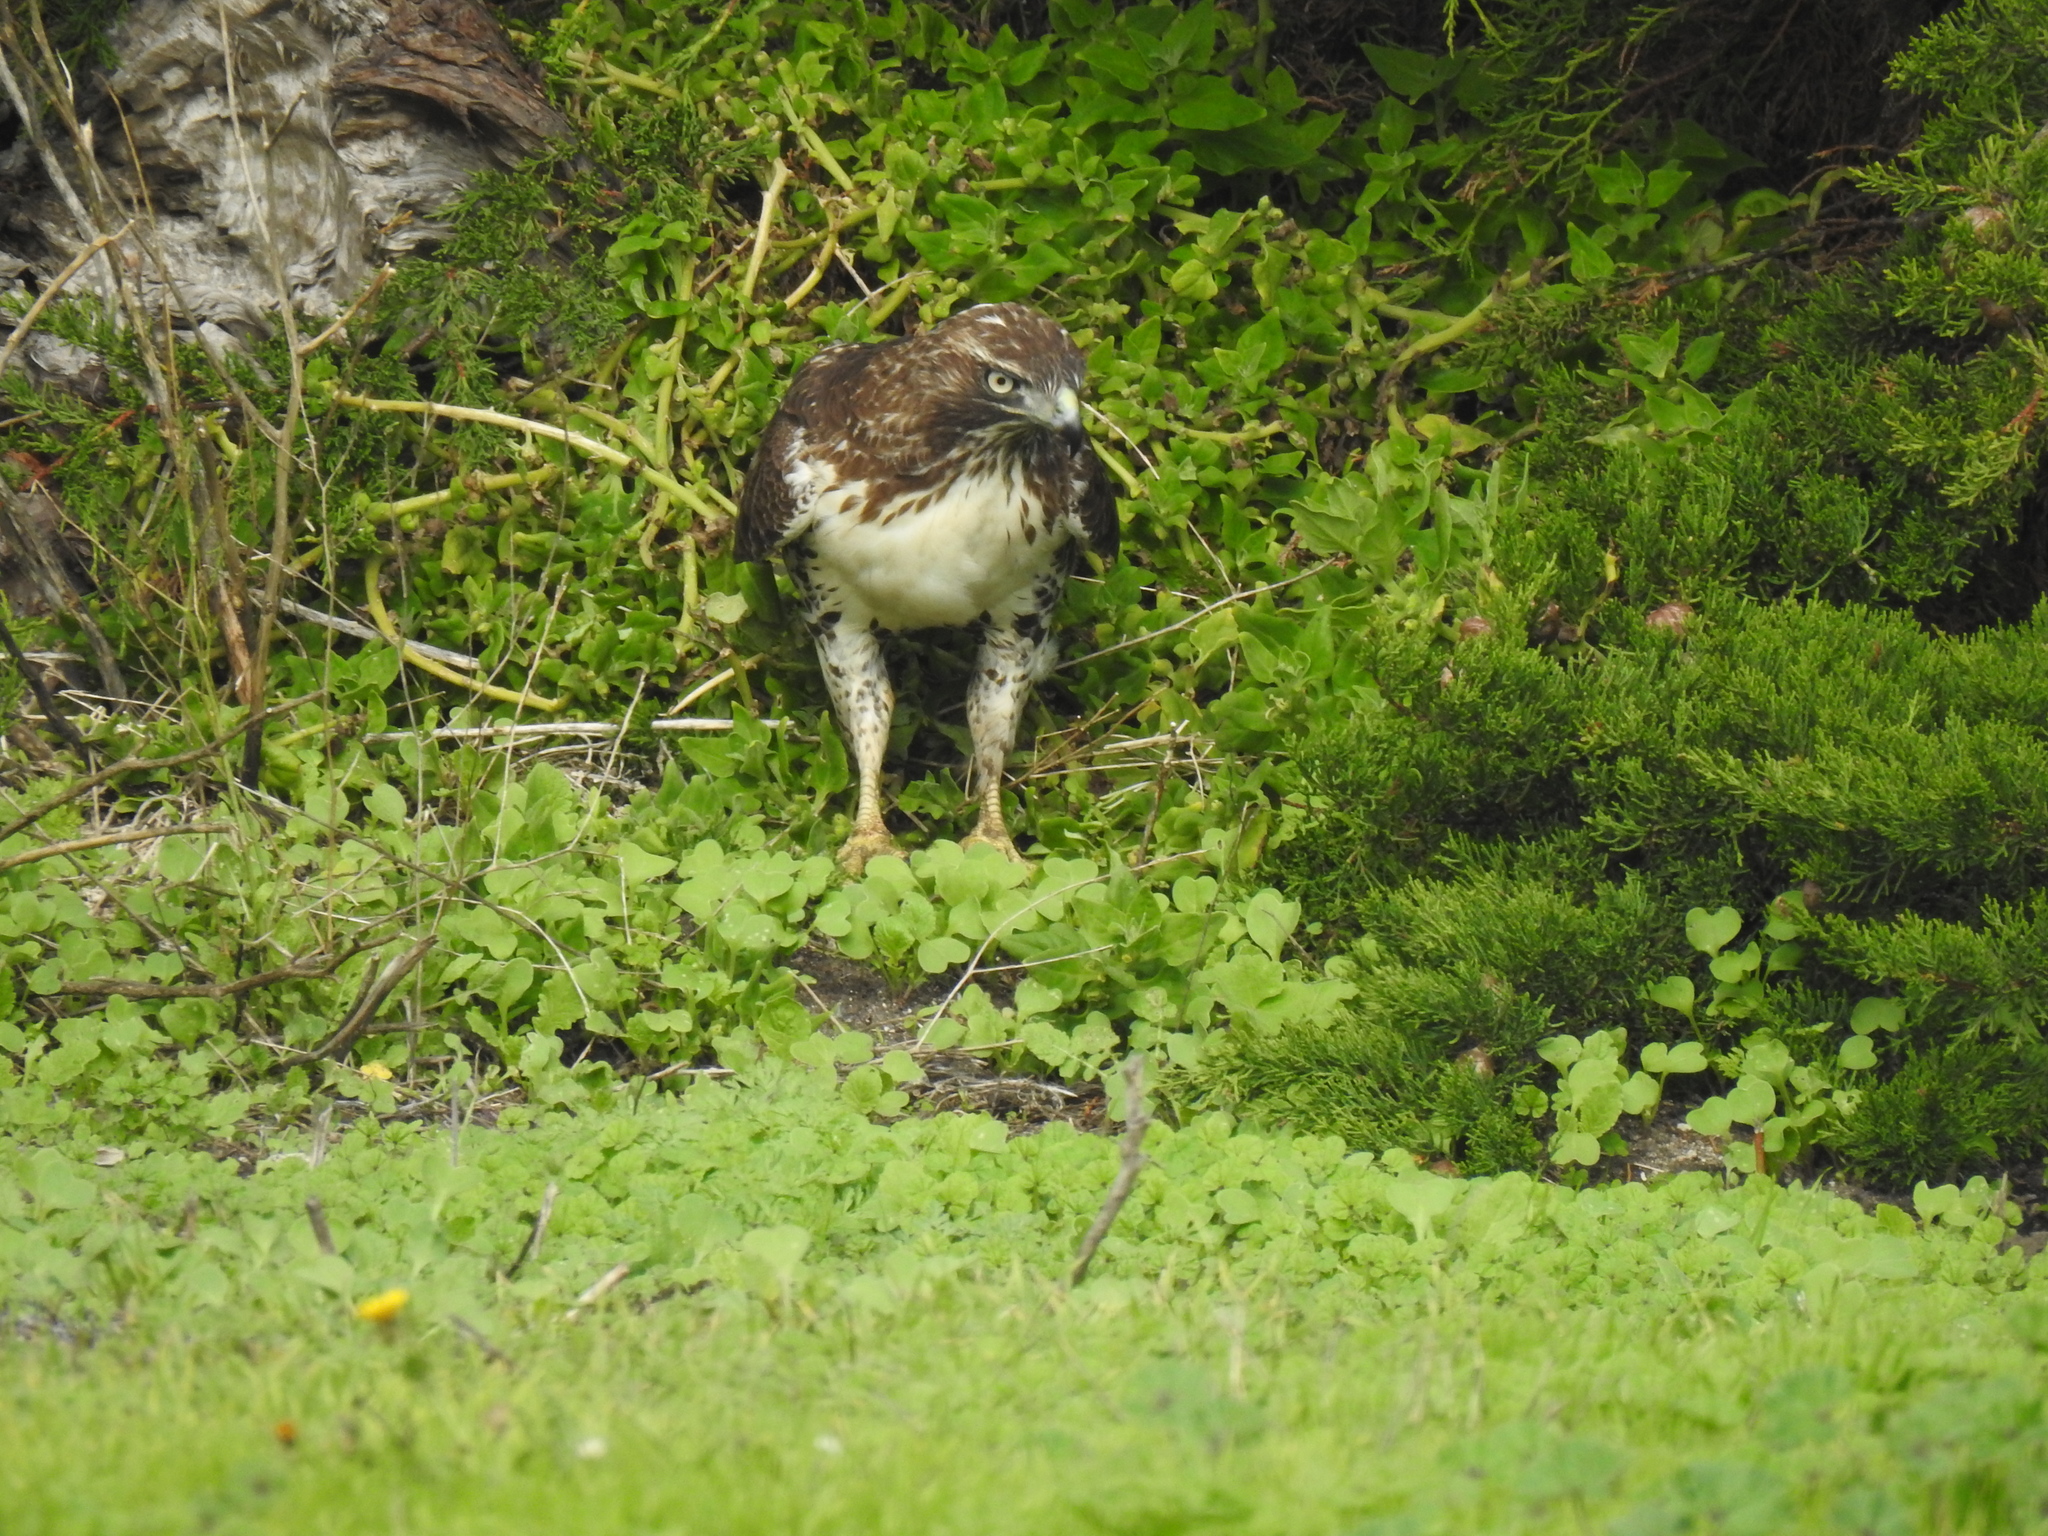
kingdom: Animalia
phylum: Chordata
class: Aves
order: Accipitriformes
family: Accipitridae
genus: Buteo
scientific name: Buteo jamaicensis
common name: Red-tailed hawk
